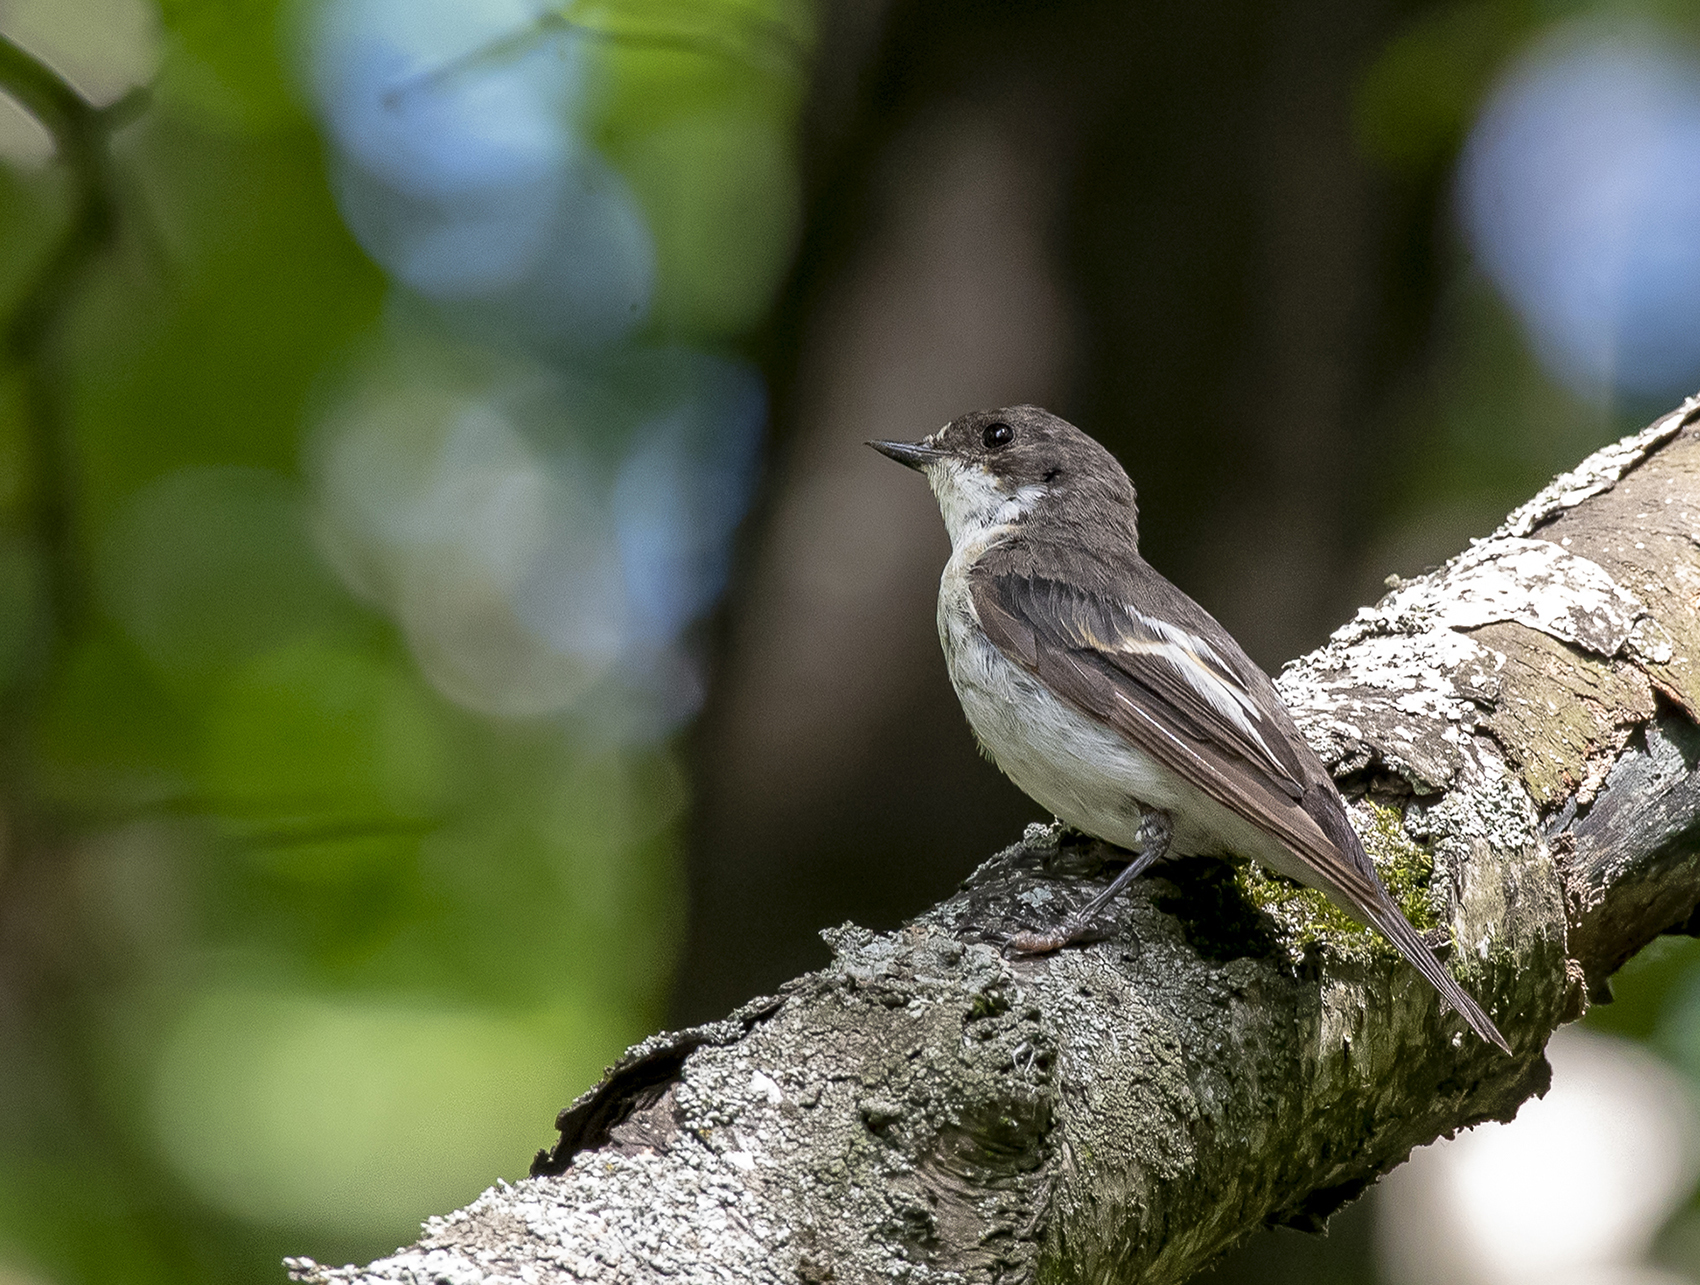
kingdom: Animalia
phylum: Chordata
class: Aves
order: Passeriformes
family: Muscicapidae
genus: Ficedula
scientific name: Ficedula hypoleuca
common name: European pied flycatcher
